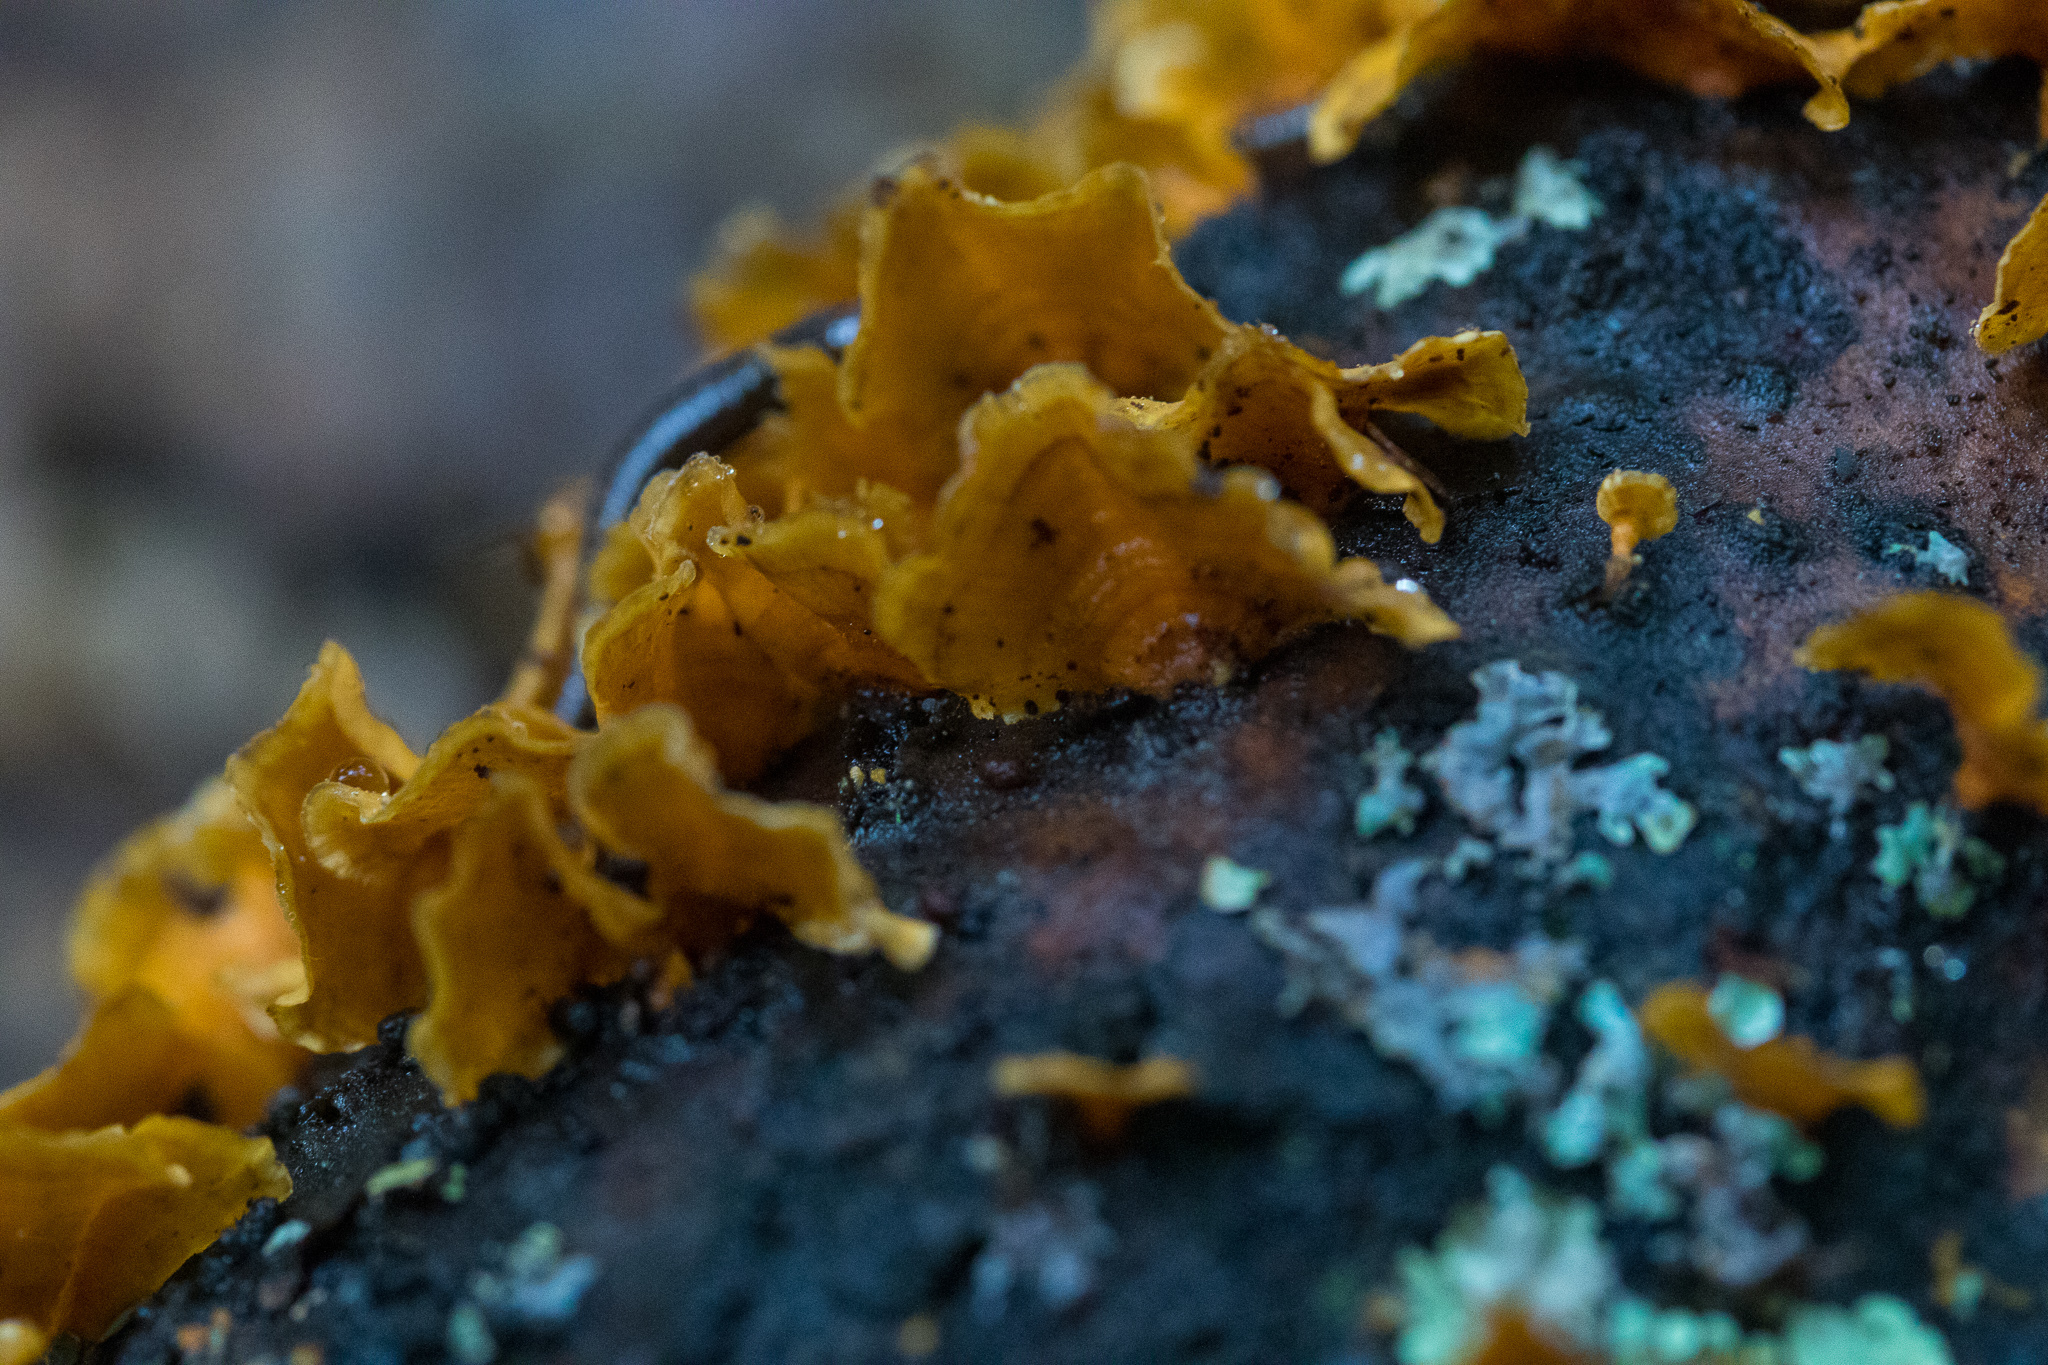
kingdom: Fungi
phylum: Basidiomycota
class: Agaricomycetes
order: Russulales
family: Stereaceae
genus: Stereum
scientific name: Stereum complicatum
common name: Crowded parchment
